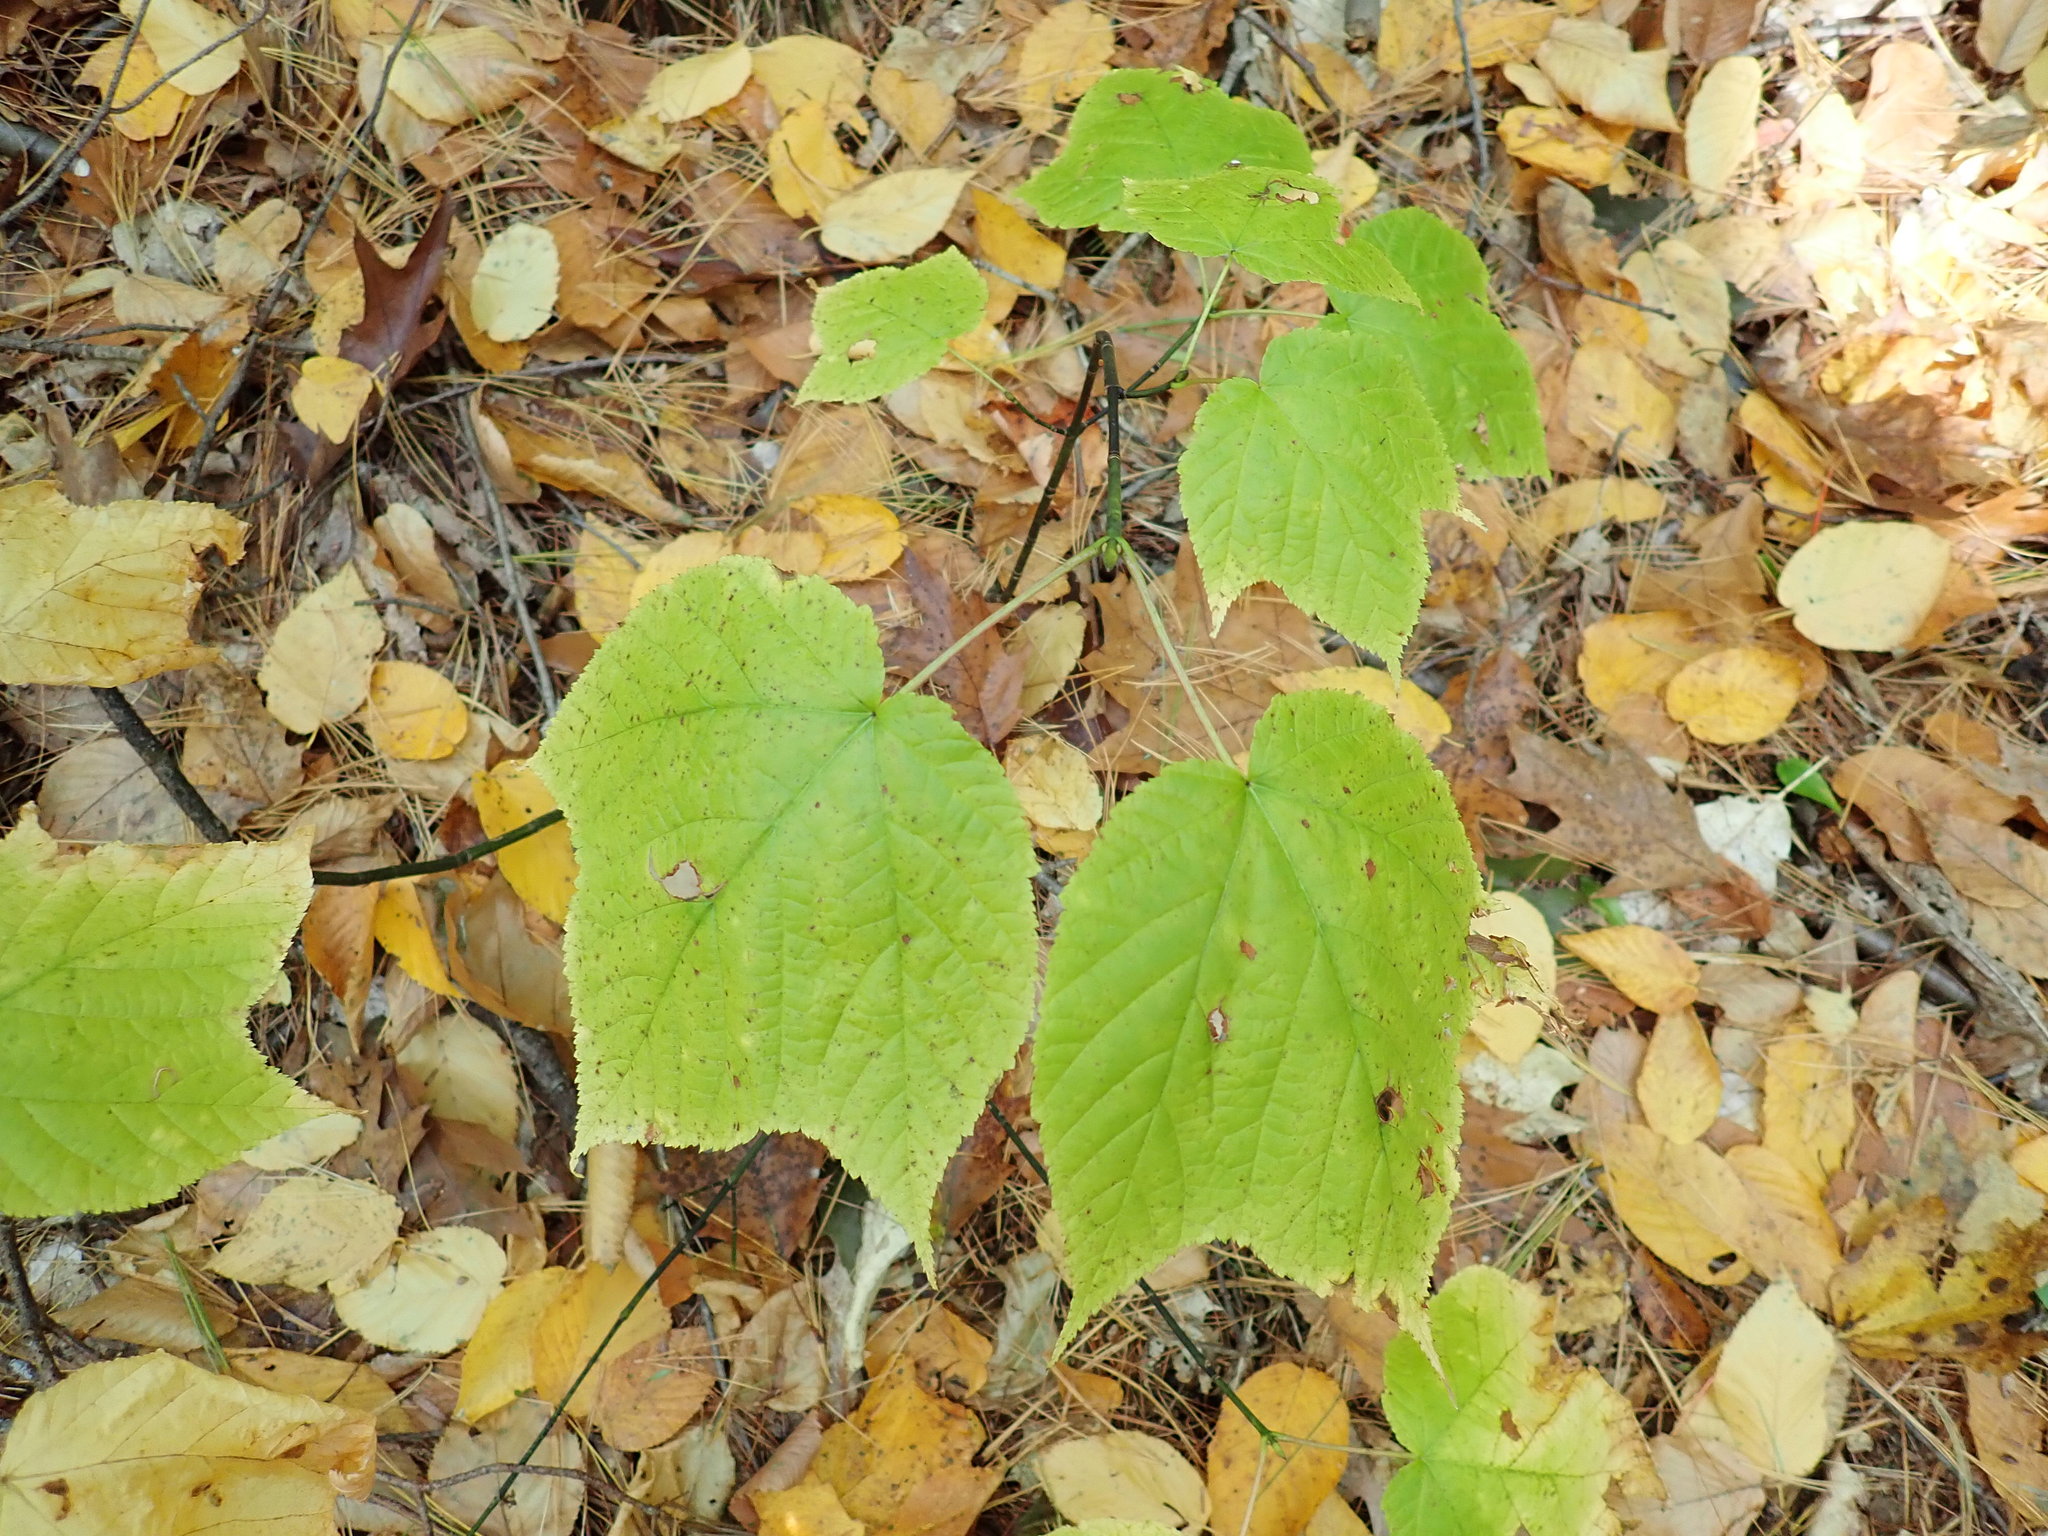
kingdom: Plantae
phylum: Tracheophyta
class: Magnoliopsida
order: Sapindales
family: Sapindaceae
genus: Acer
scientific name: Acer pensylvanicum
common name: Moosewood
